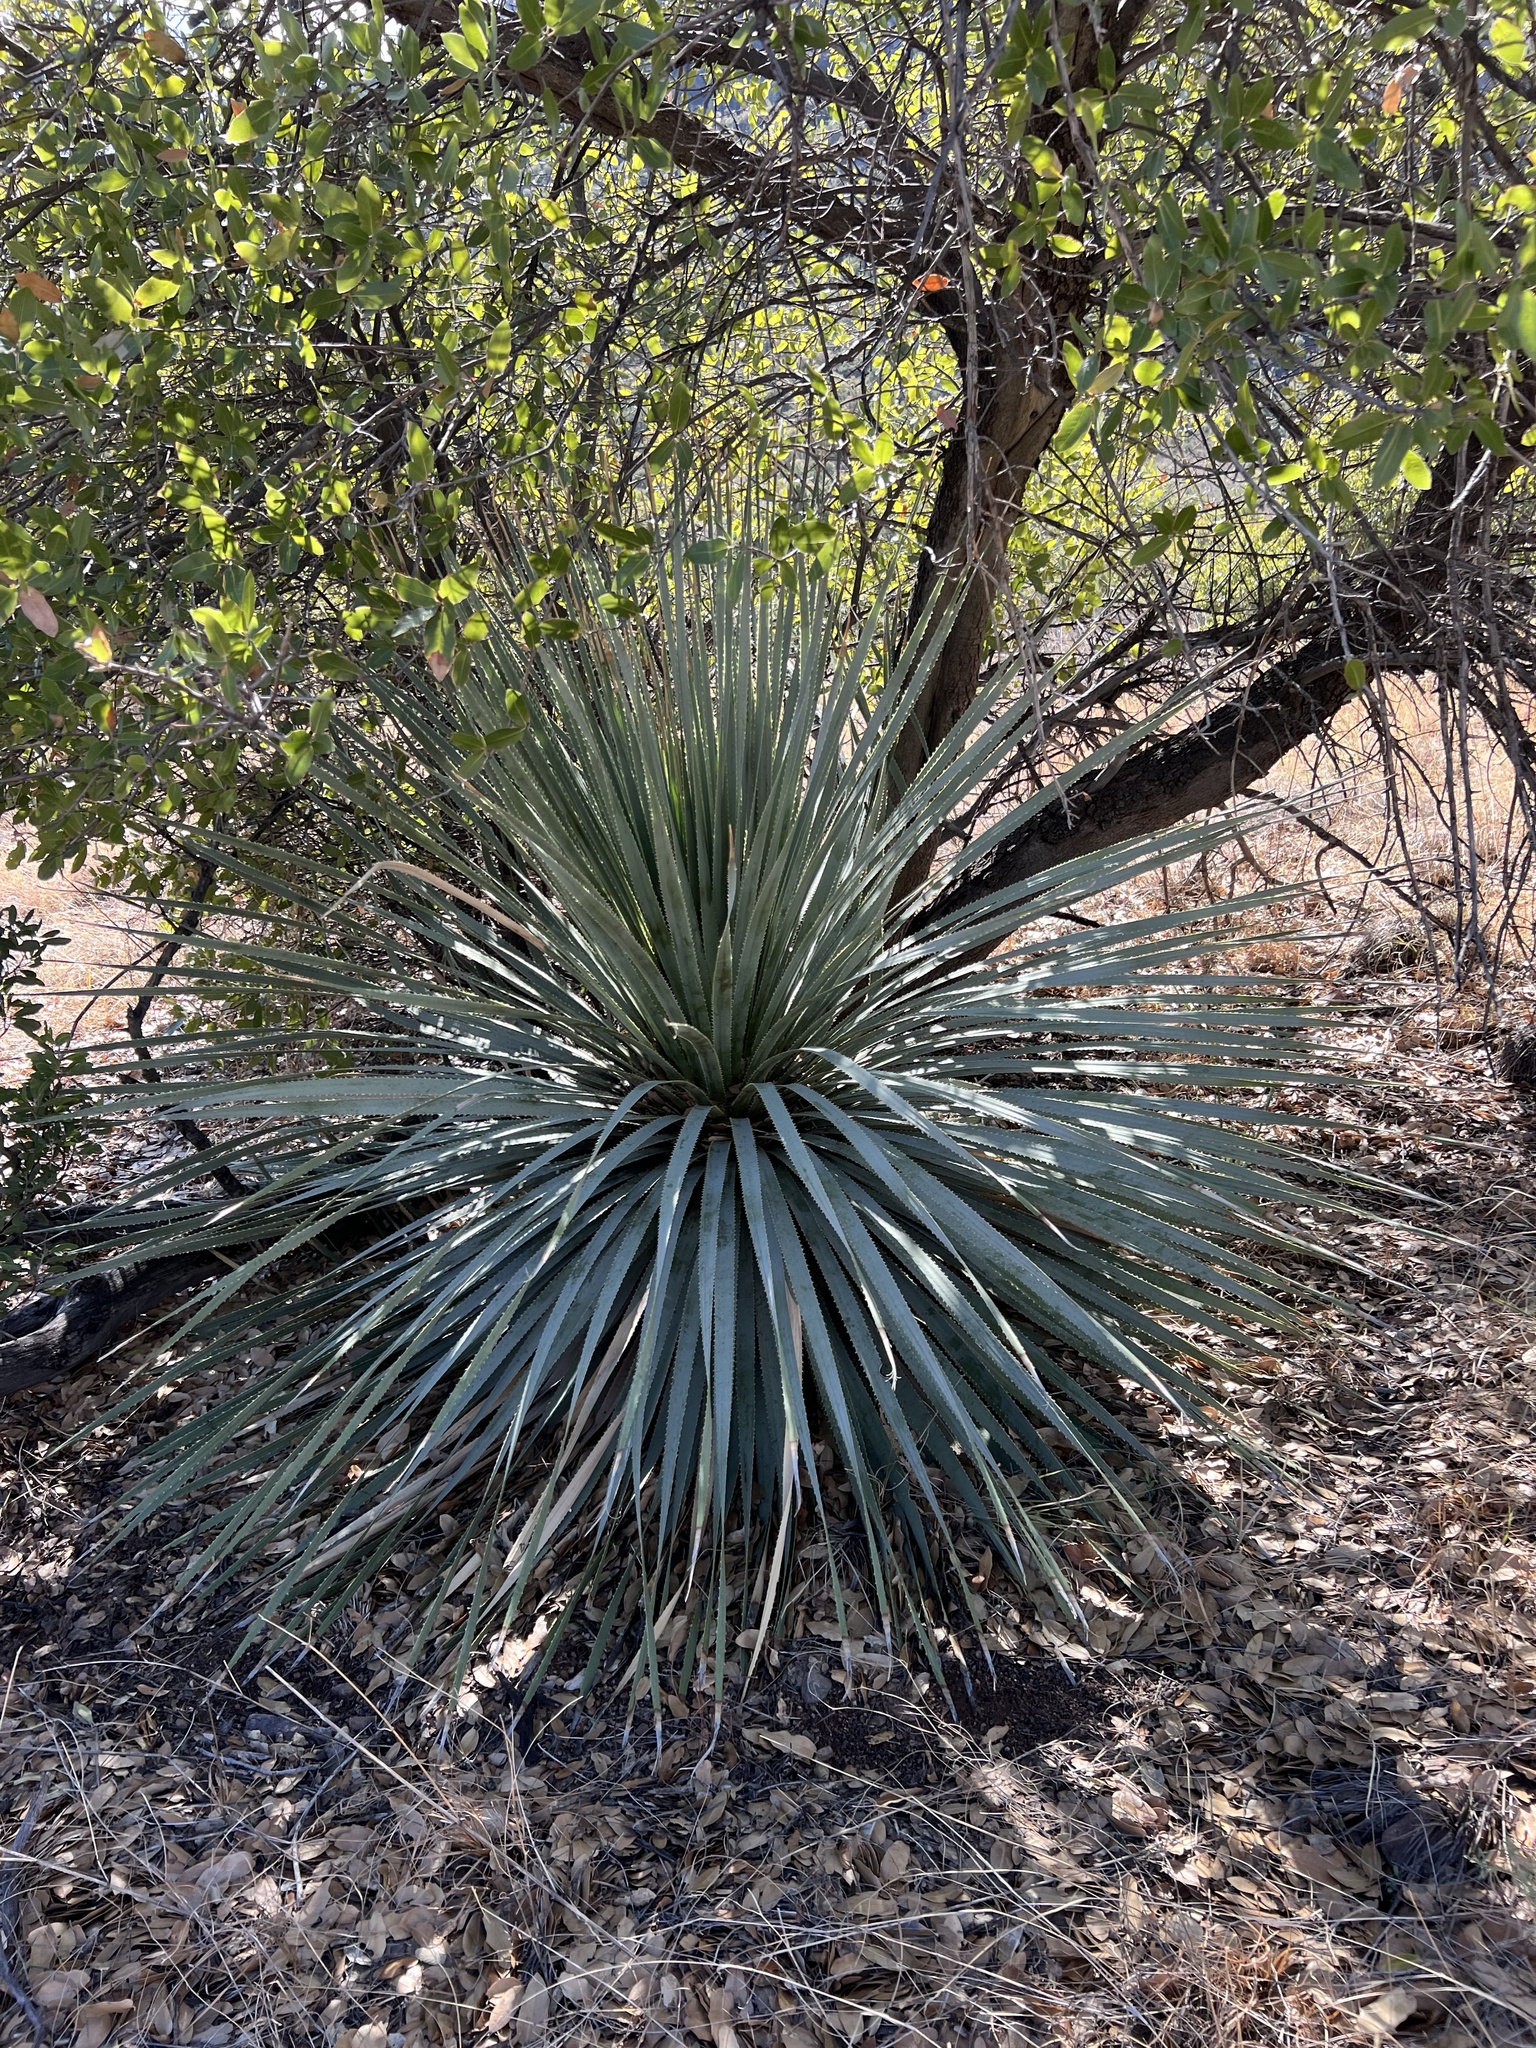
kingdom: Plantae
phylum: Tracheophyta
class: Liliopsida
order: Asparagales
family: Asparagaceae
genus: Dasylirion
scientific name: Dasylirion wheeleri
